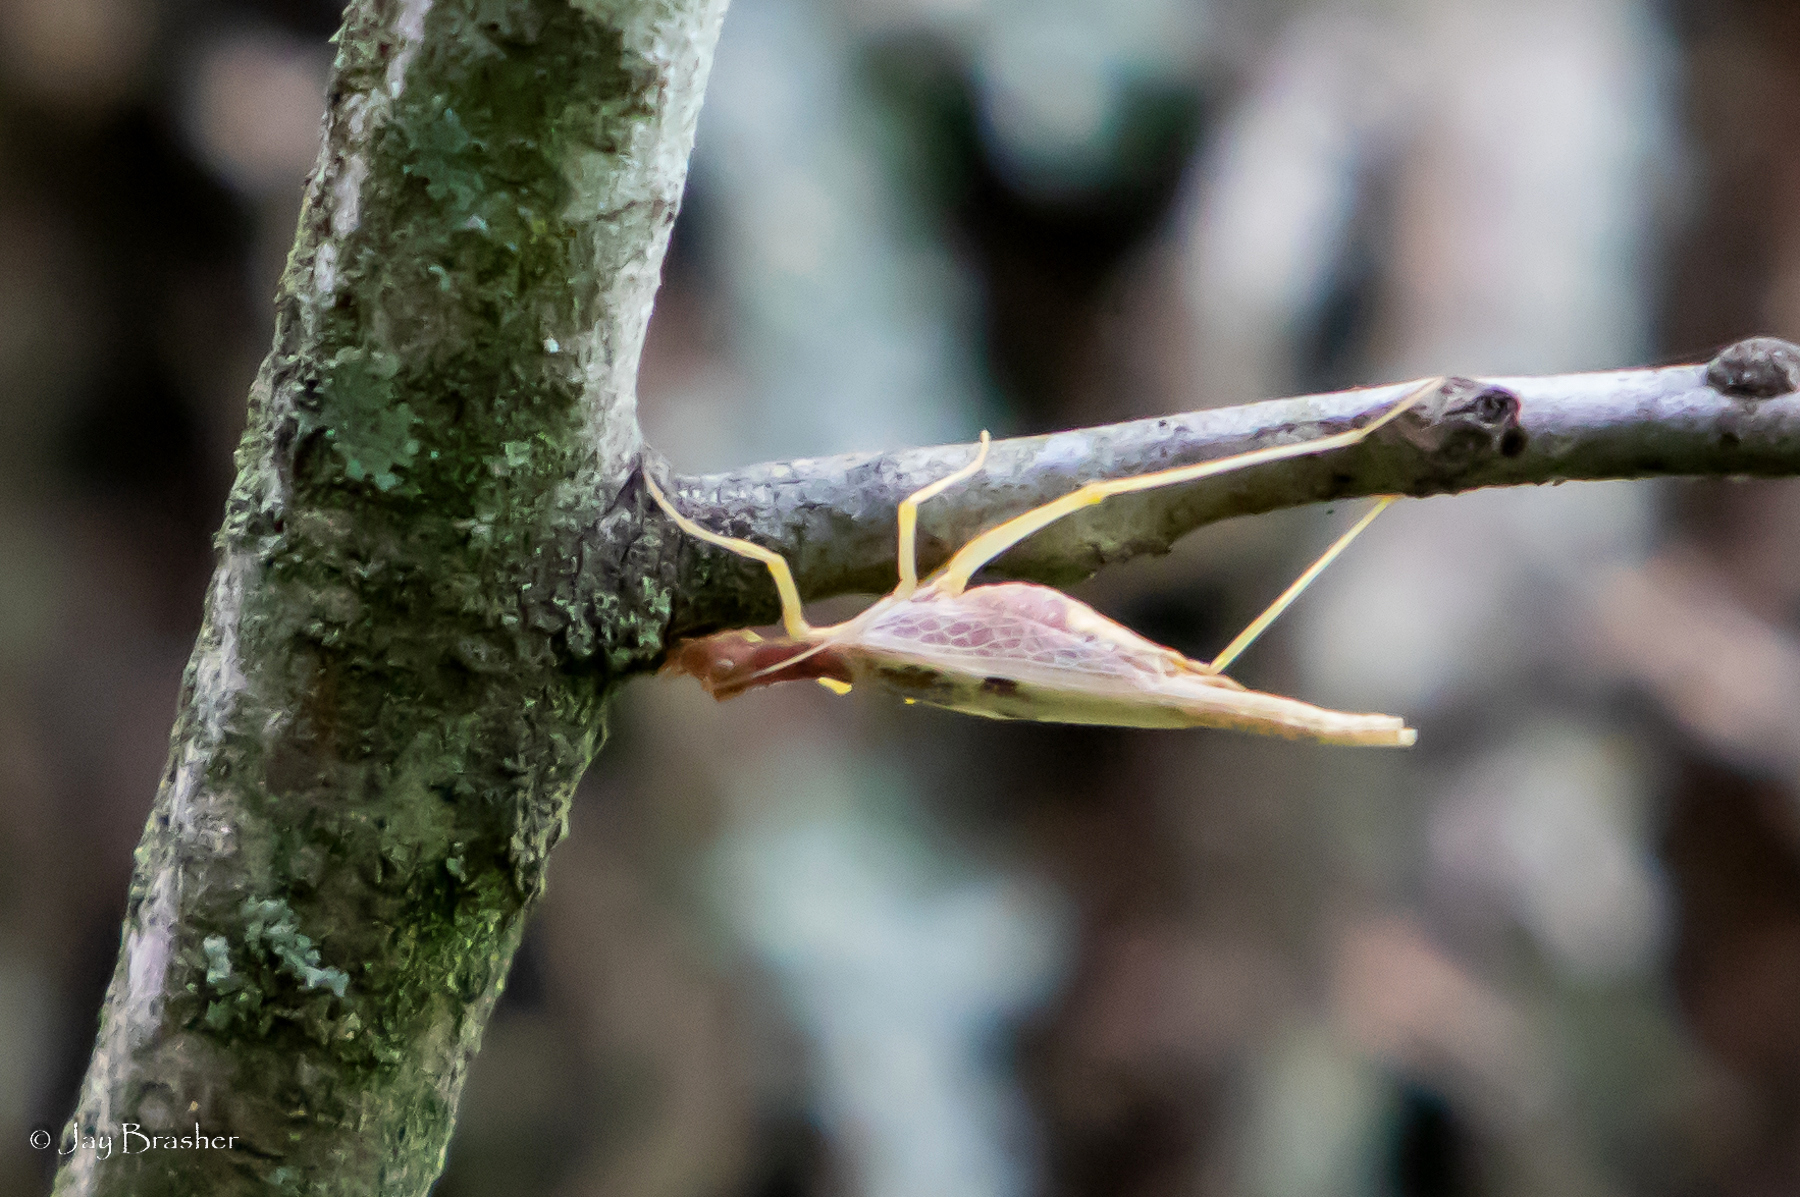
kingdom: Animalia
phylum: Arthropoda
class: Insecta
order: Orthoptera
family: Gryllidae
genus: Neoxabea
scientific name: Neoxabea bipunctata
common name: Two-spotted tree cricket
